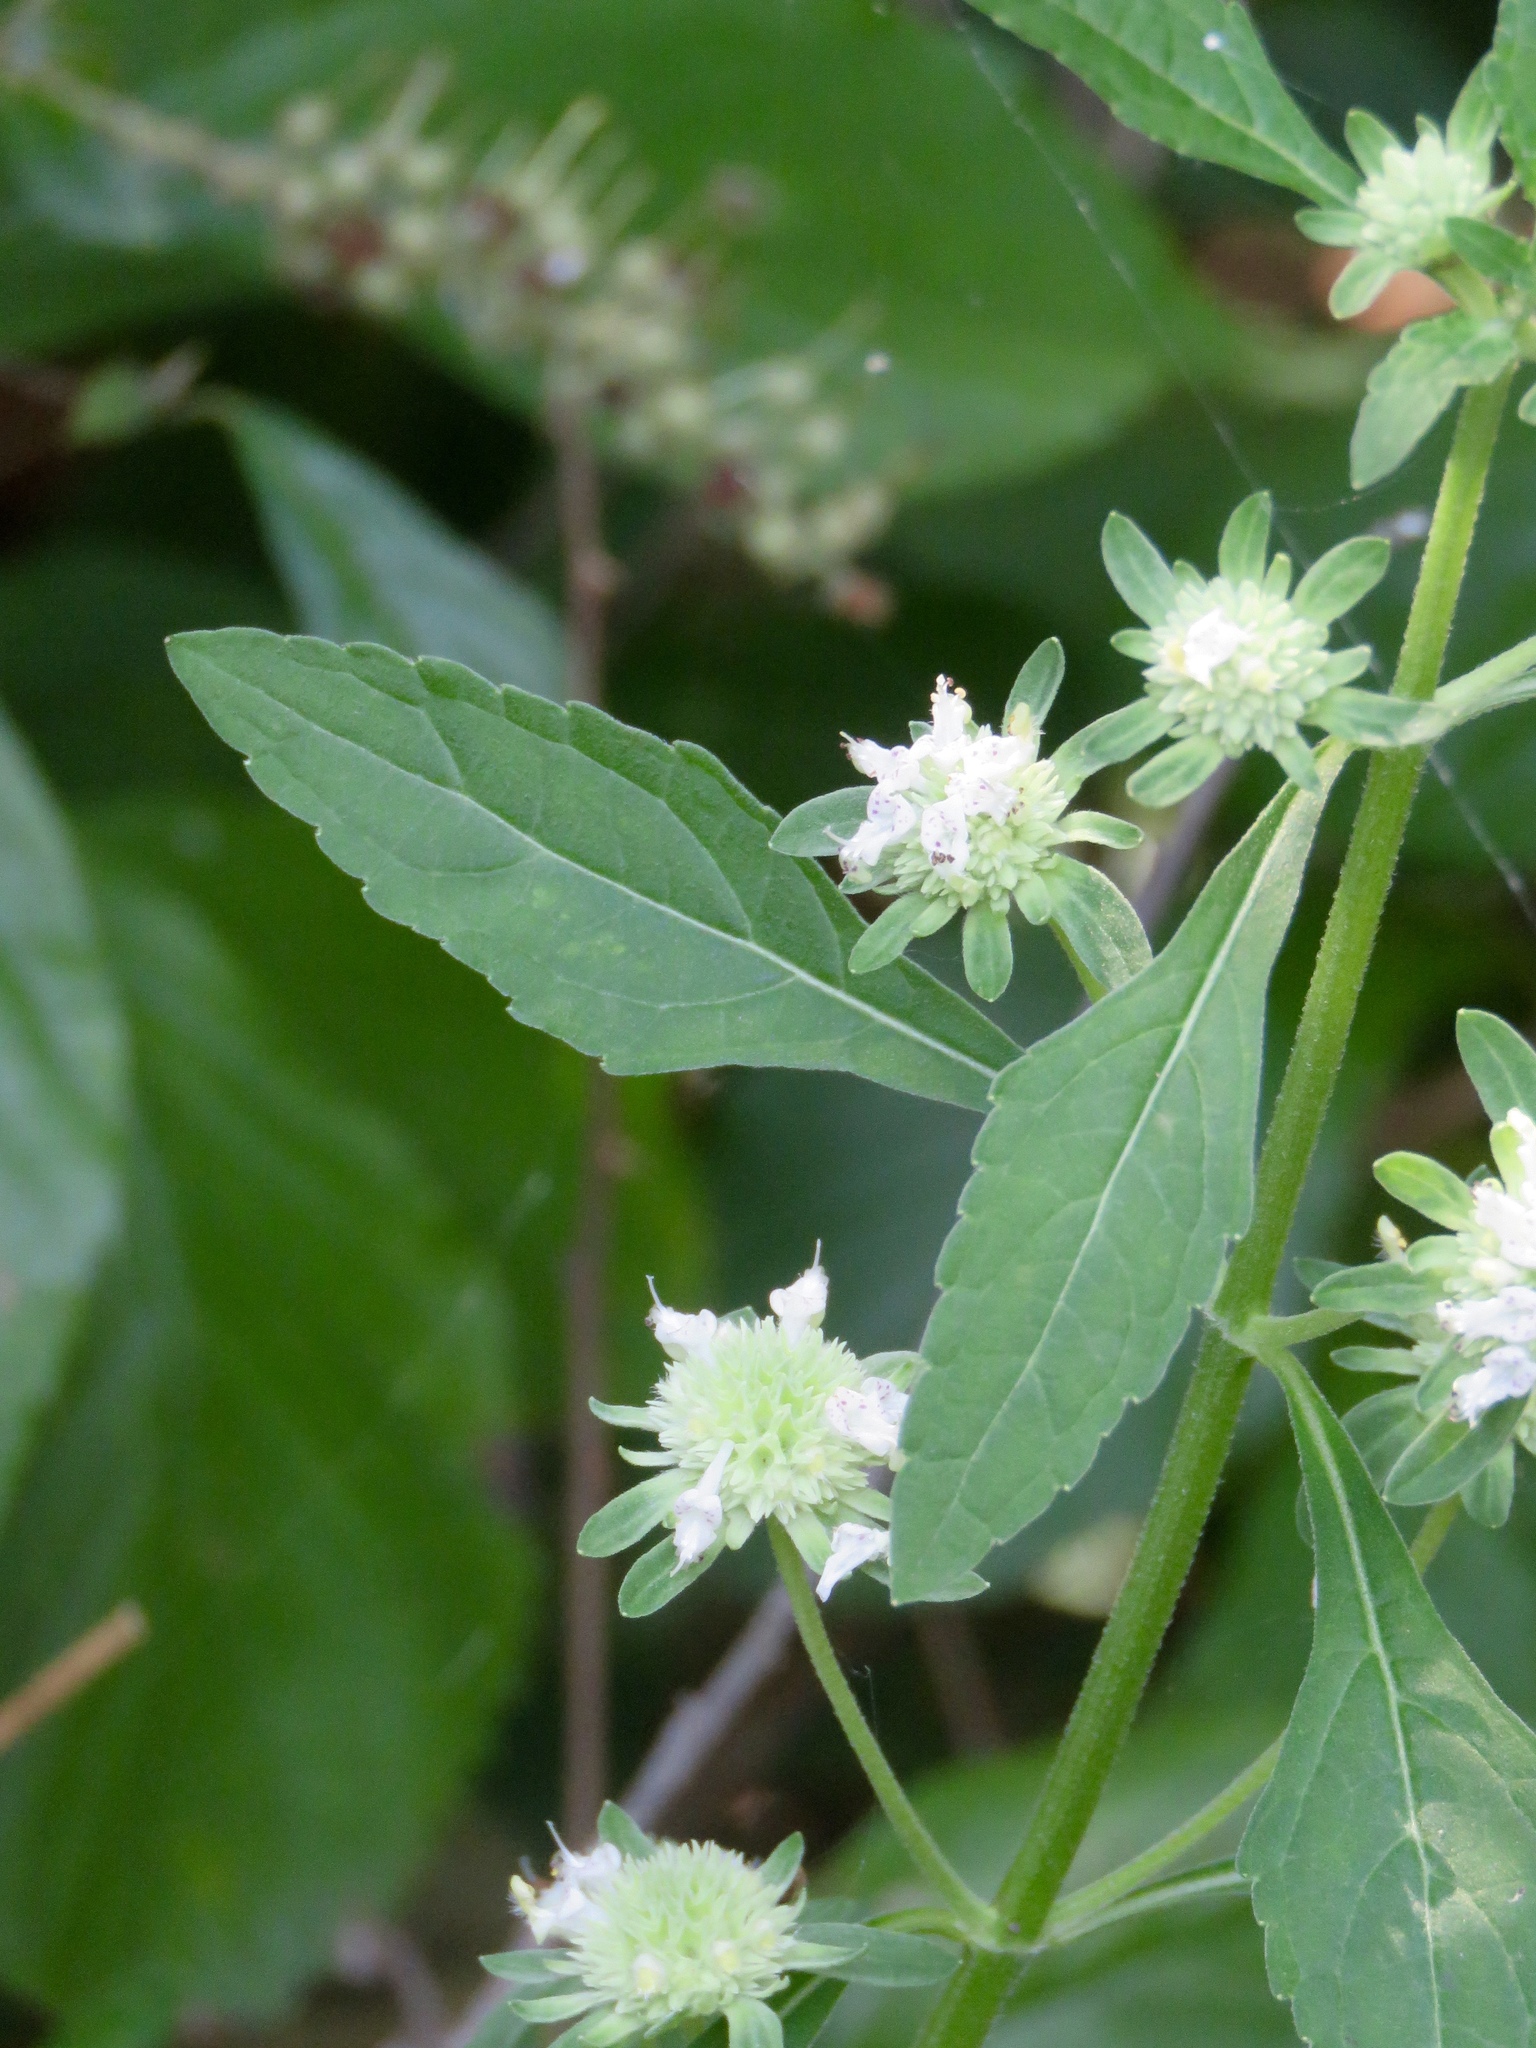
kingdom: Plantae
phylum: Tracheophyta
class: Magnoliopsida
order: Lamiales
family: Lamiaceae
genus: Hyptis
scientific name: Hyptis alata
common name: Cluster bush-mint
